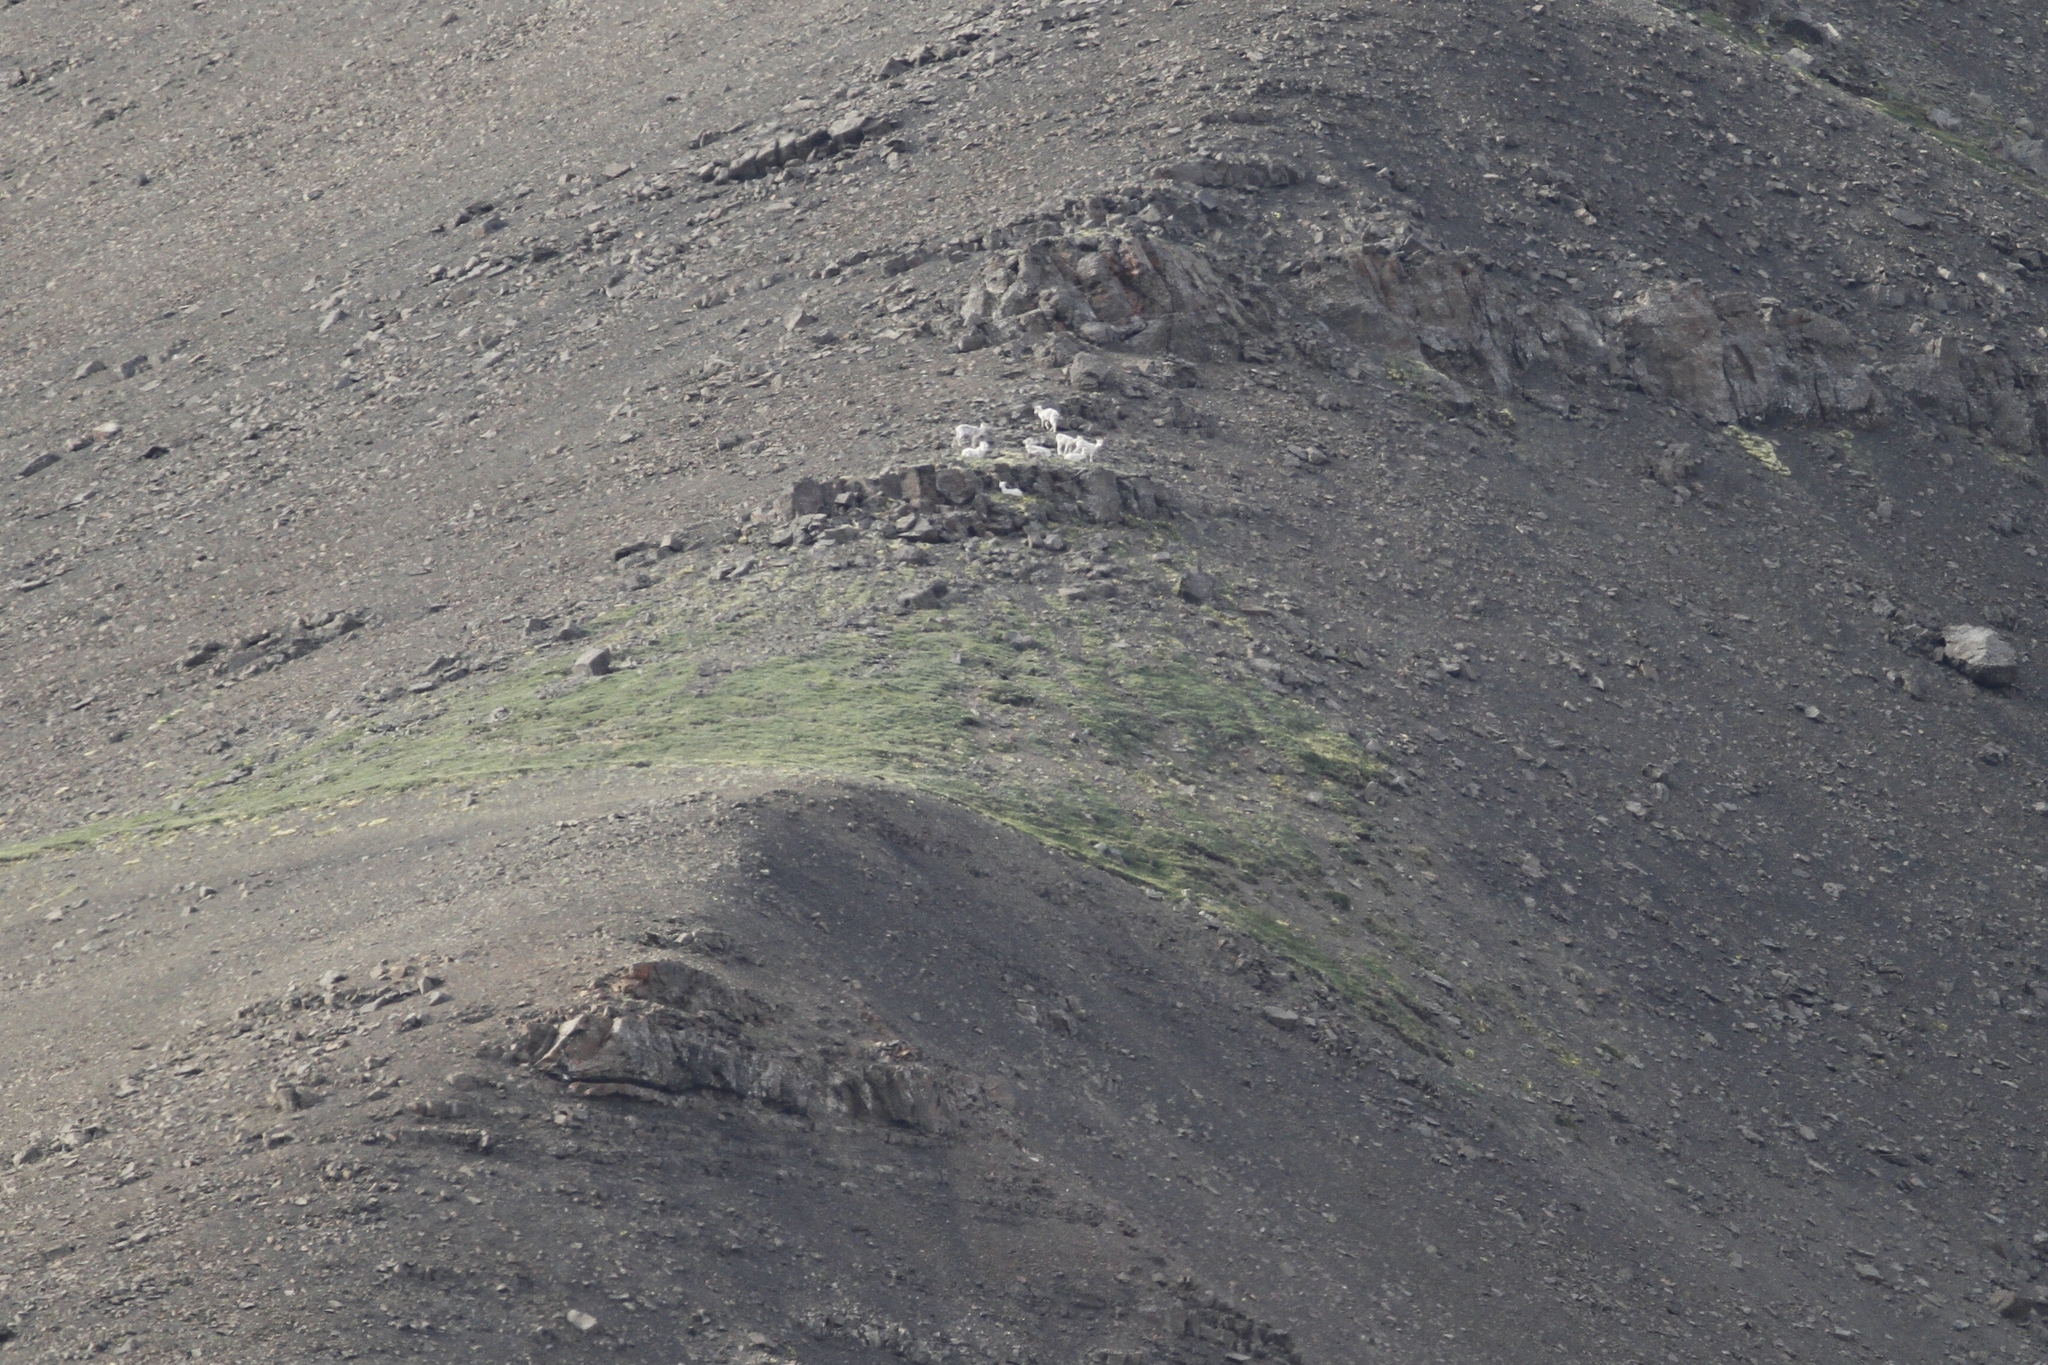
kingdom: Animalia
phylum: Chordata
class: Mammalia
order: Artiodactyla
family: Bovidae
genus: Ovis
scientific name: Ovis dalli
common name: Dall's sheep
